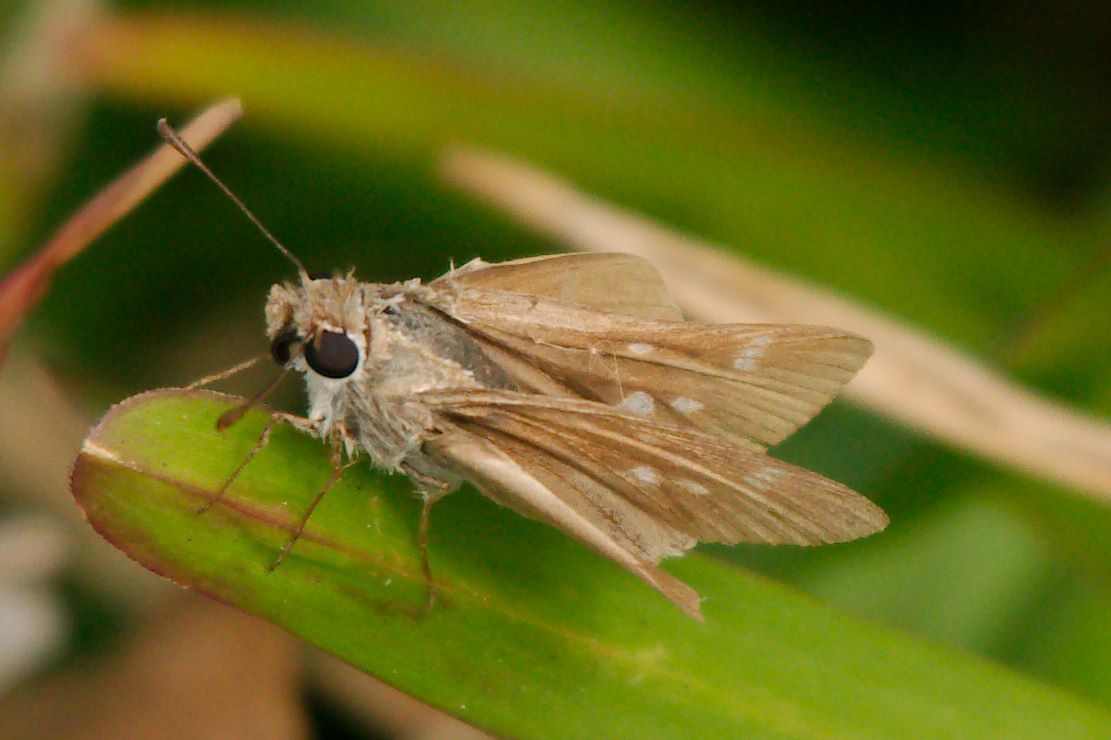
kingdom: Animalia
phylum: Arthropoda
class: Insecta
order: Lepidoptera
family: Hesperiidae
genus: Lerodea
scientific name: Lerodea eufala
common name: Eufala skipper
